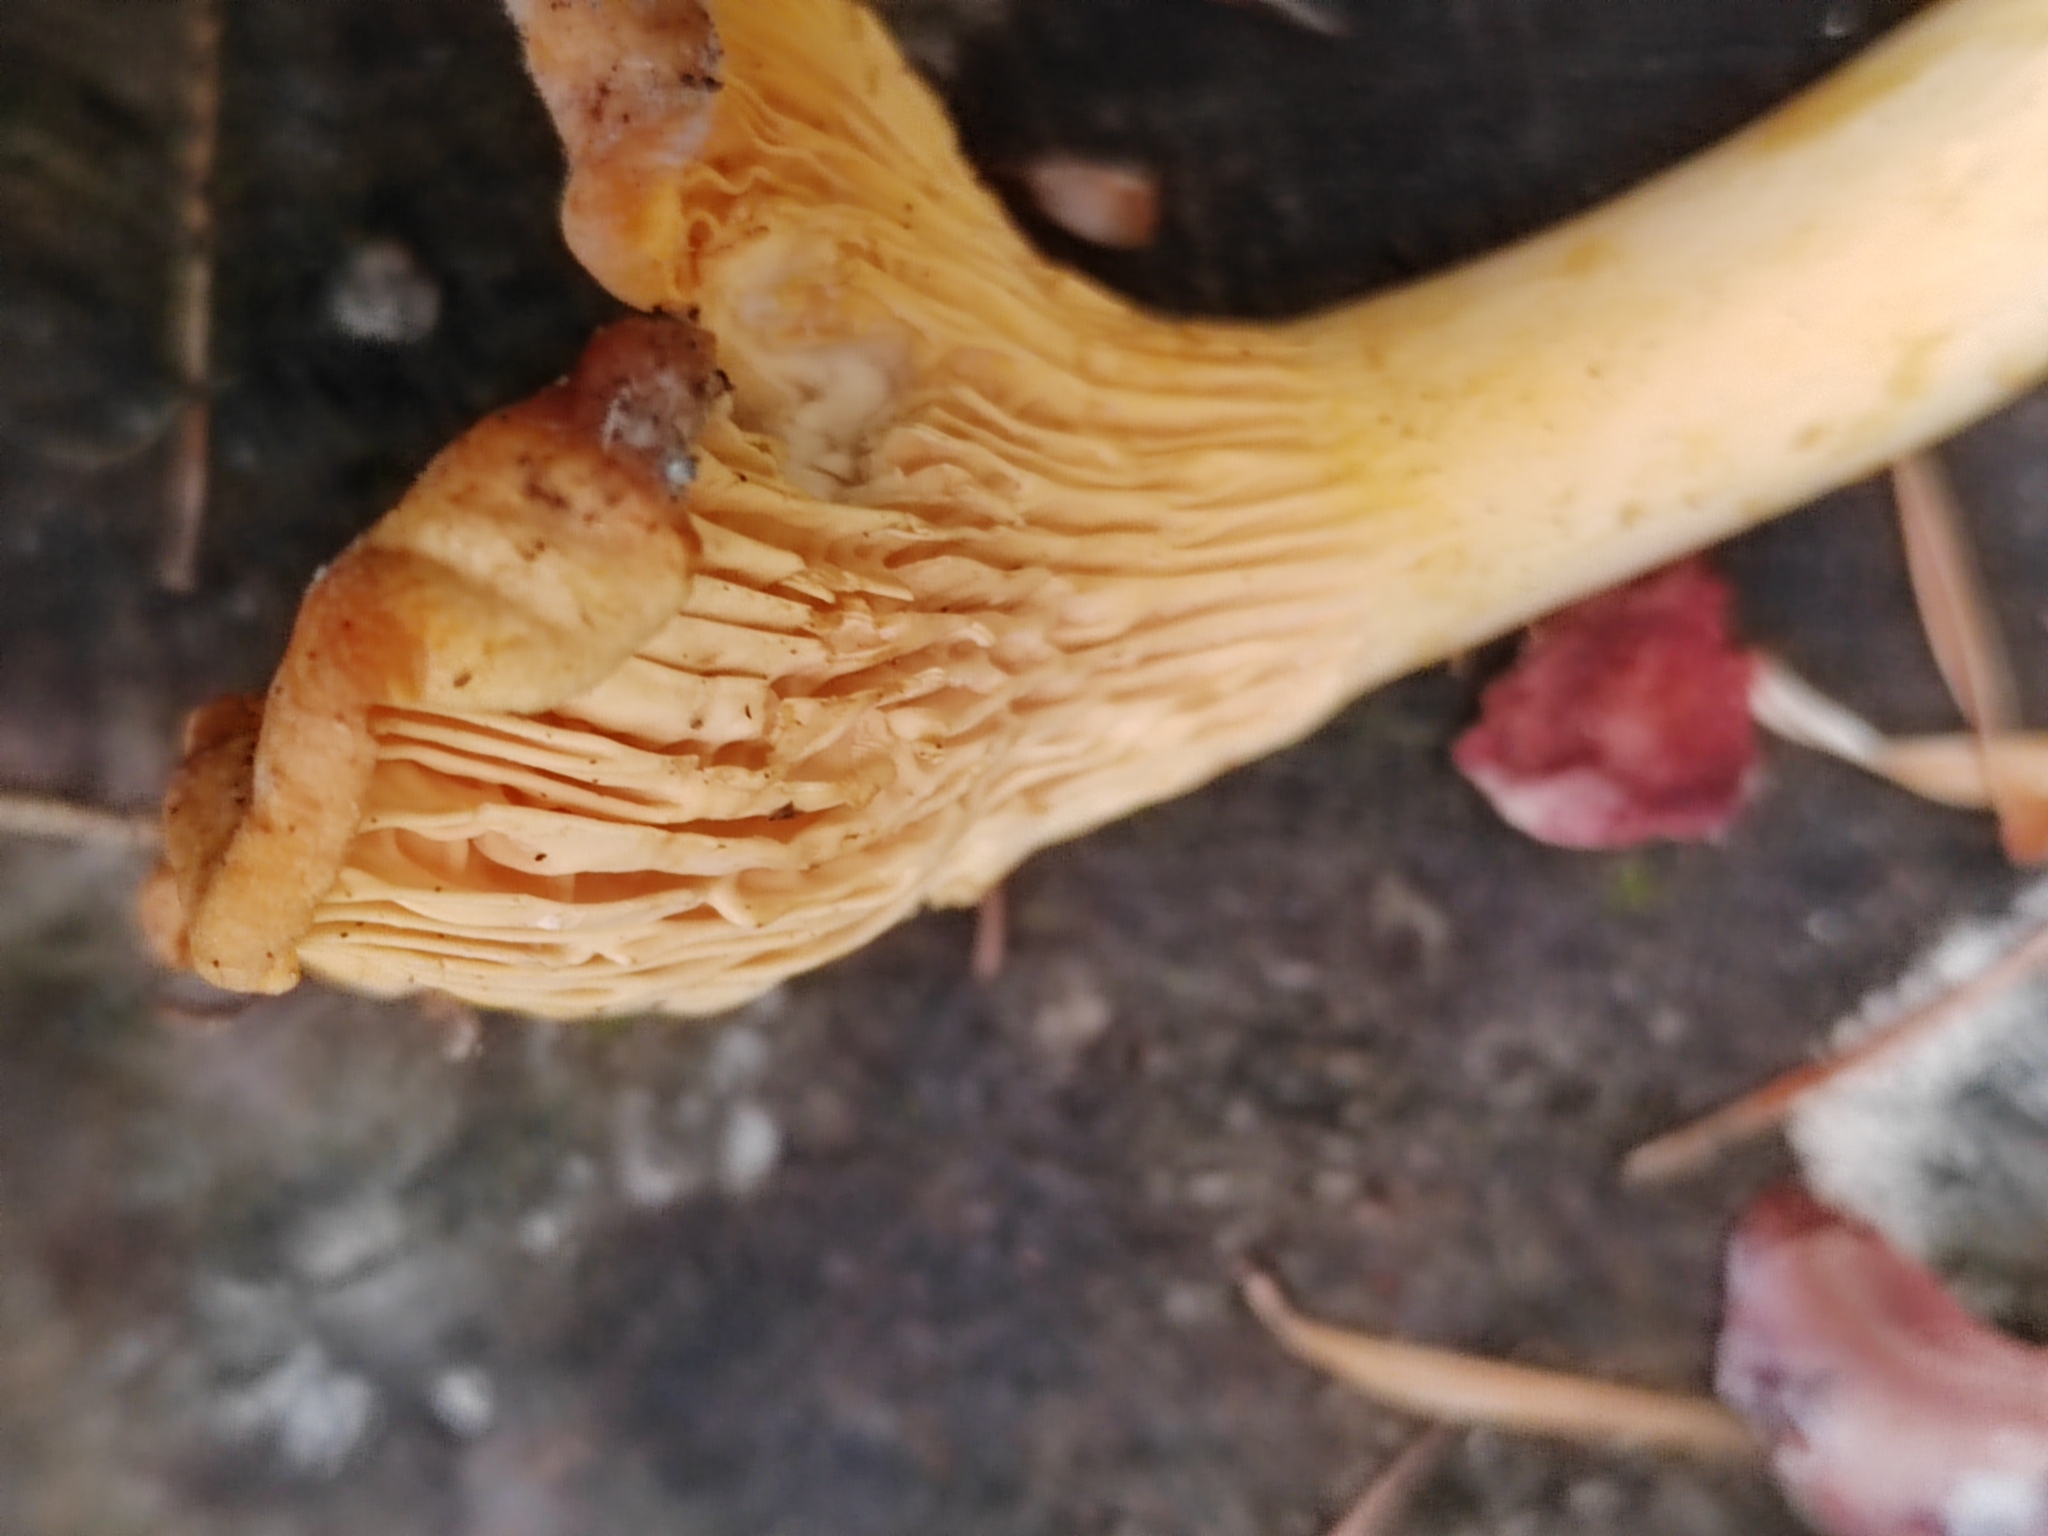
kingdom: Fungi
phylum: Basidiomycota
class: Agaricomycetes
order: Cantharellales
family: Hydnaceae
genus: Cantharellus
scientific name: Cantharellus cibarius
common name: Chanterelle
